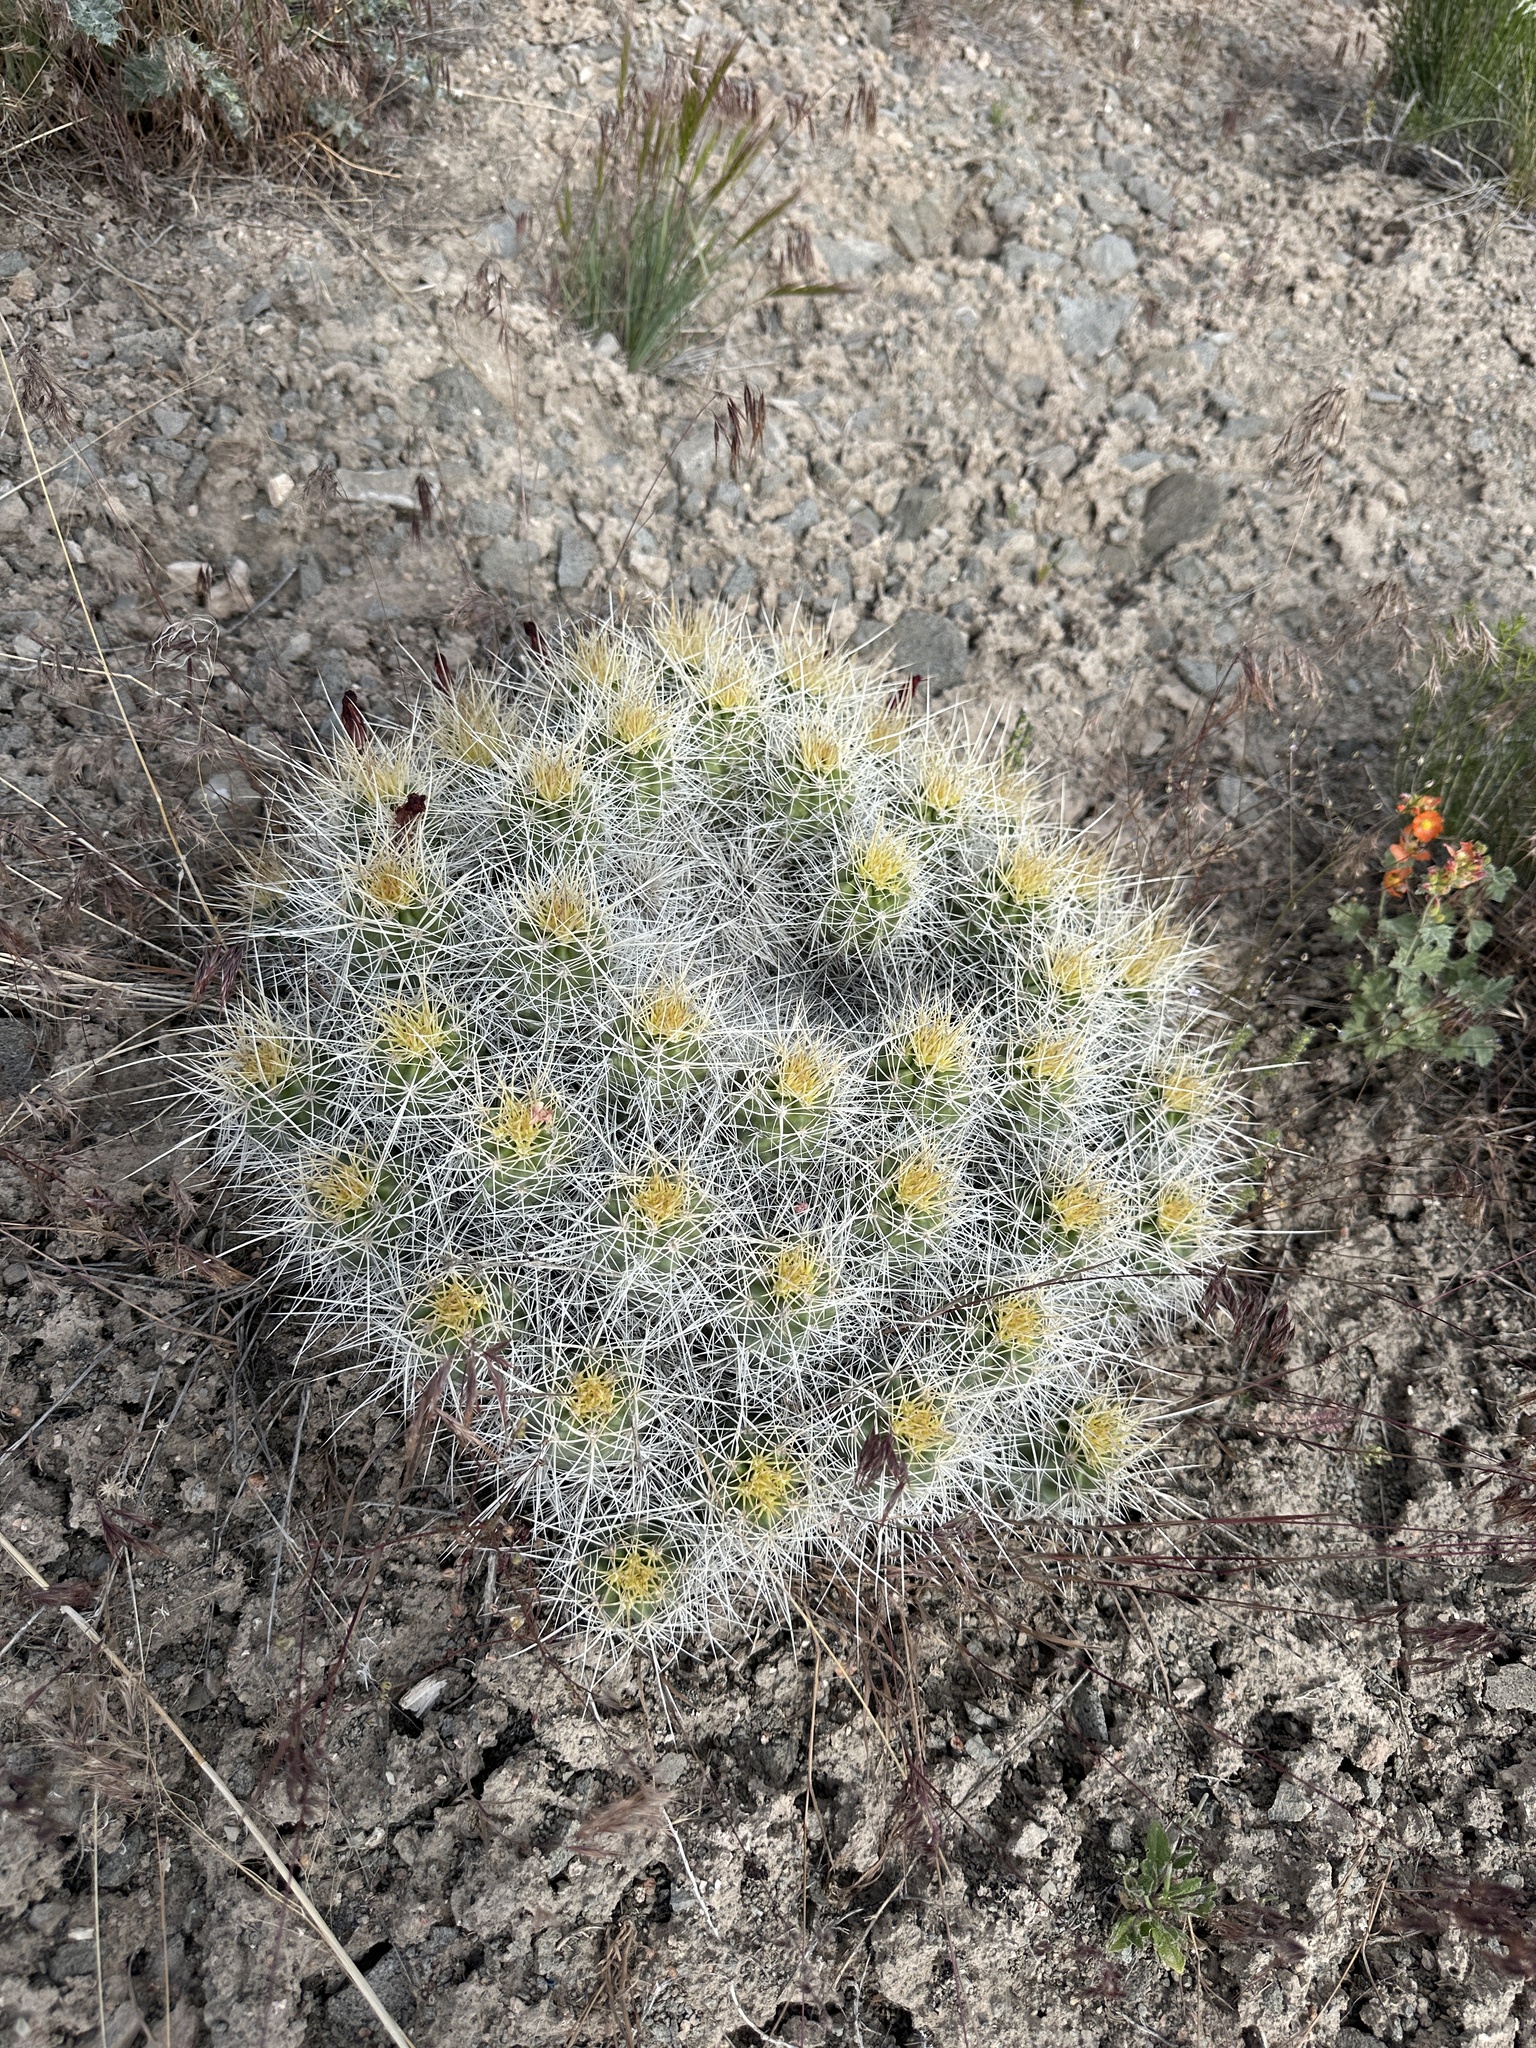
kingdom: Plantae
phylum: Tracheophyta
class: Magnoliopsida
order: Caryophyllales
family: Cactaceae
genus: Echinocereus
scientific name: Echinocereus triglochidiatus
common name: Claretcup hedgehog
